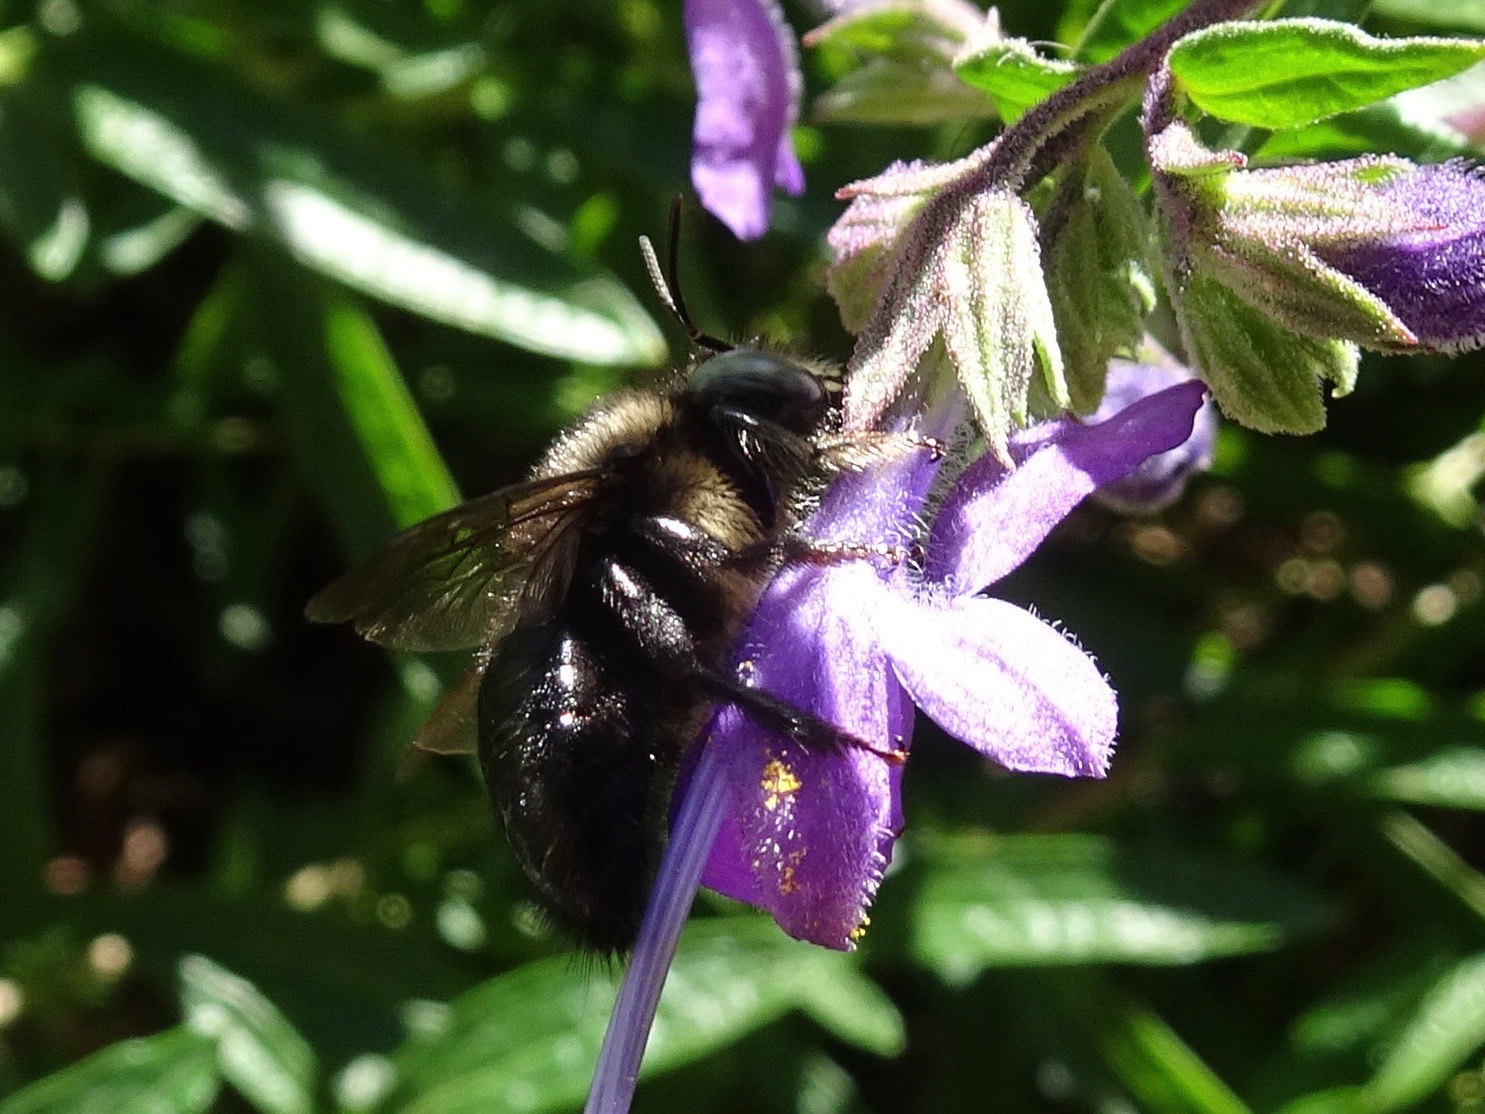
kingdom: Animalia
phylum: Arthropoda
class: Insecta
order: Hymenoptera
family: Apidae
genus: Xylocopa
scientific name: Xylocopa tabaniformis
